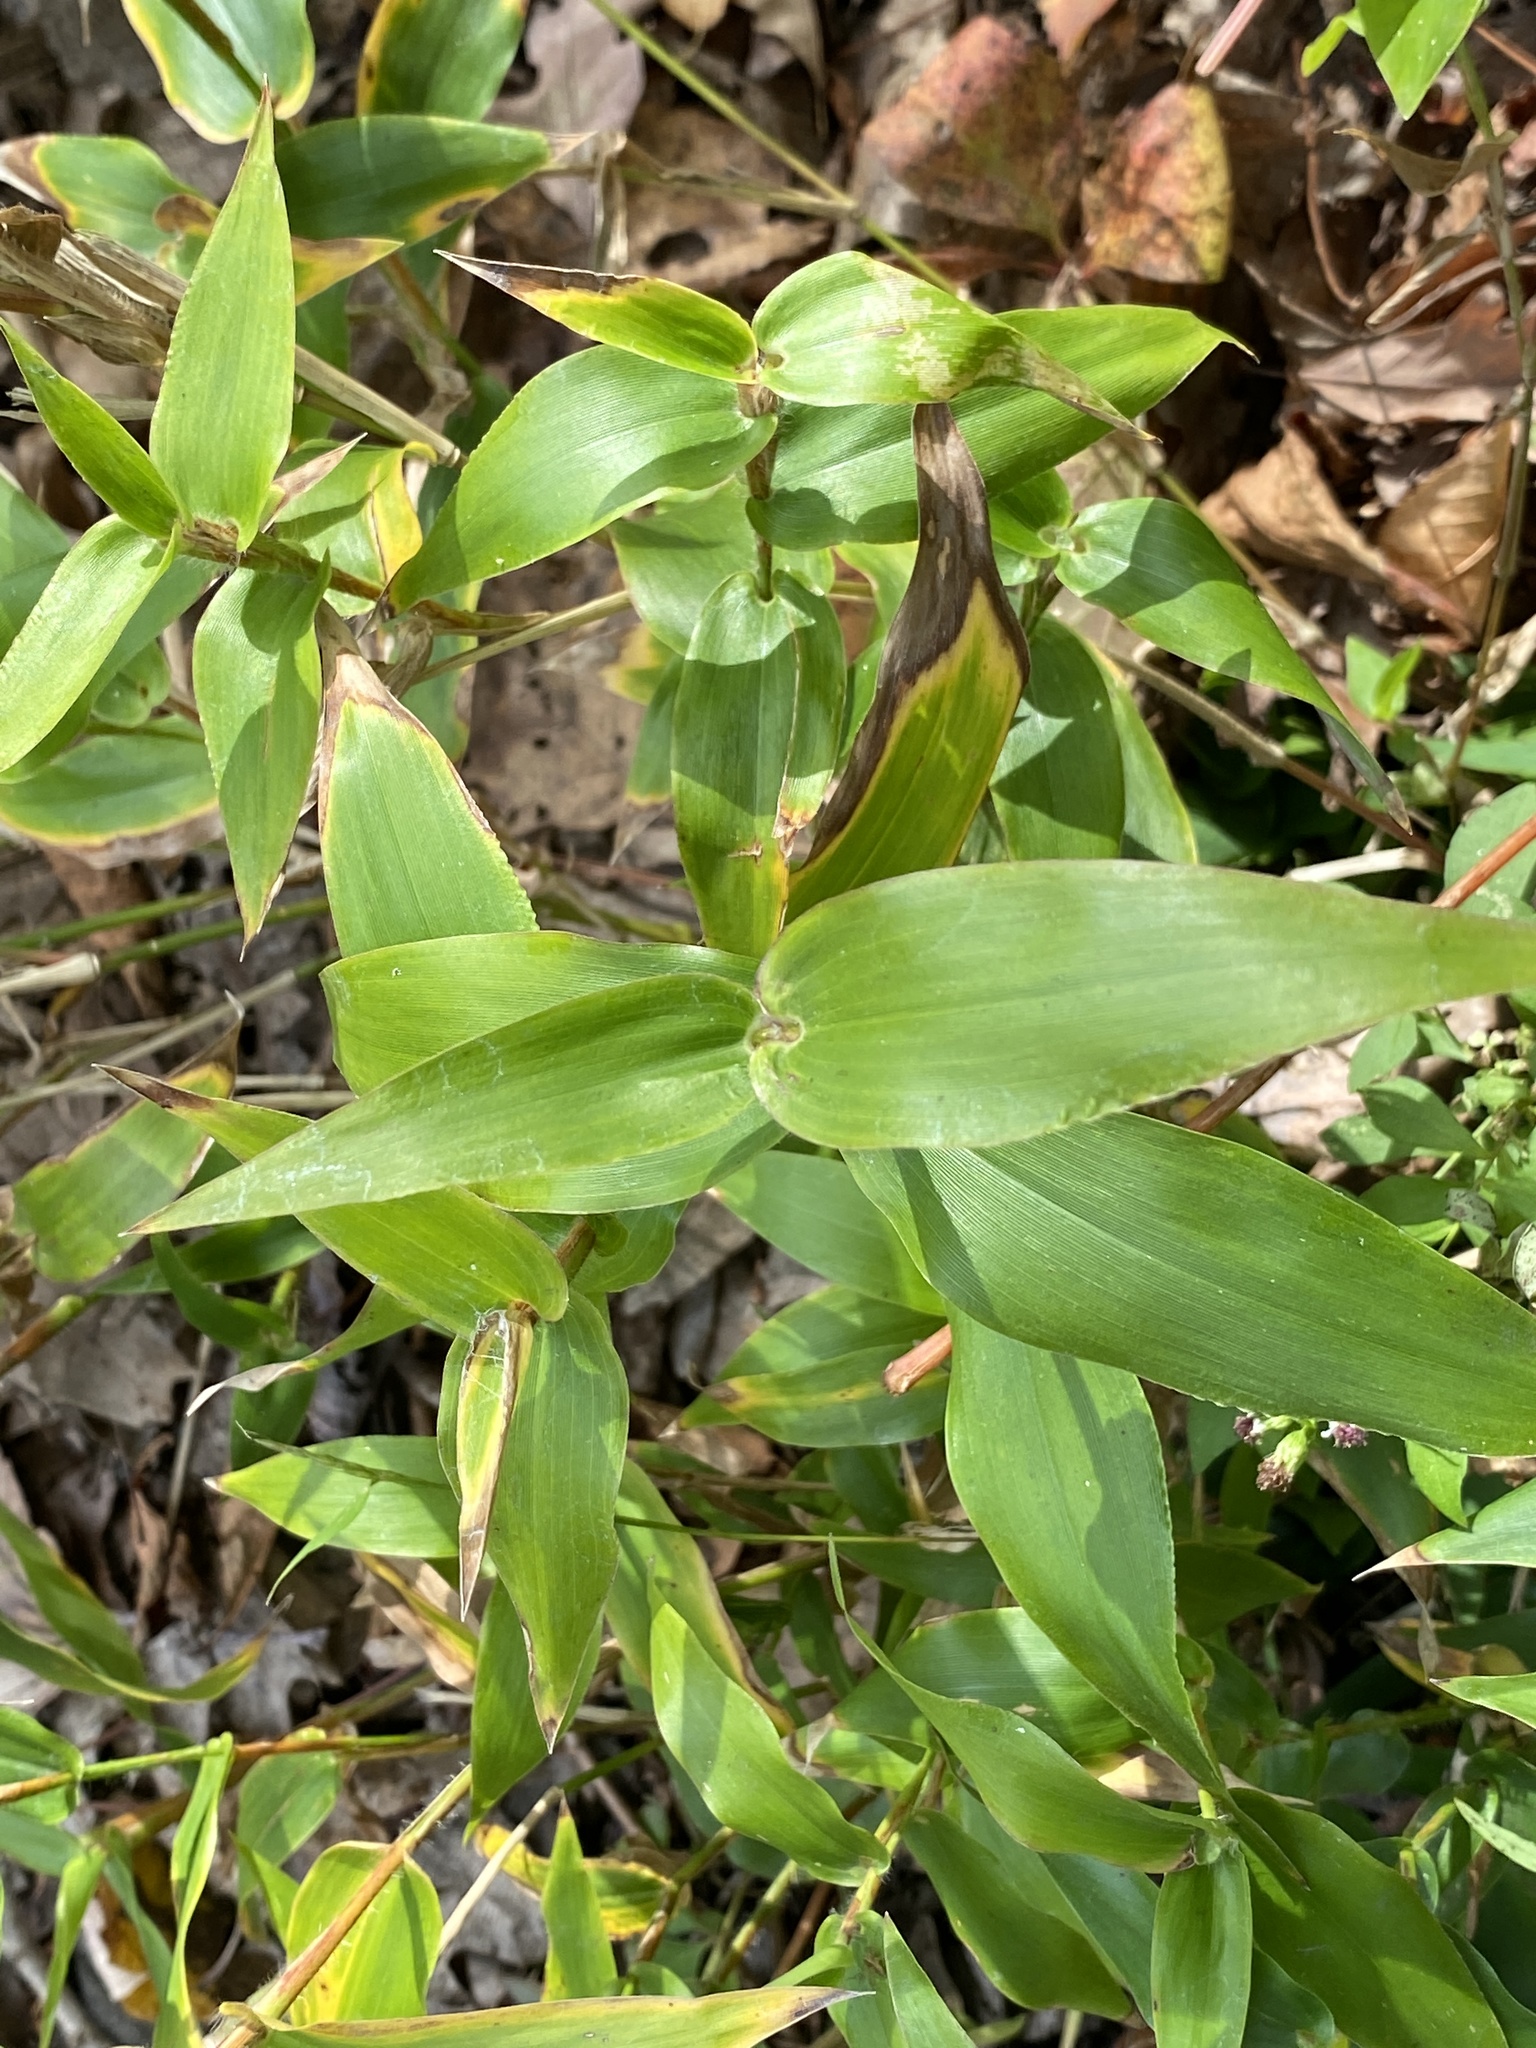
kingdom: Plantae
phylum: Tracheophyta
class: Liliopsida
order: Poales
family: Poaceae
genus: Dichanthelium
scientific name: Dichanthelium clandestinum
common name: Deer-tongue grass
